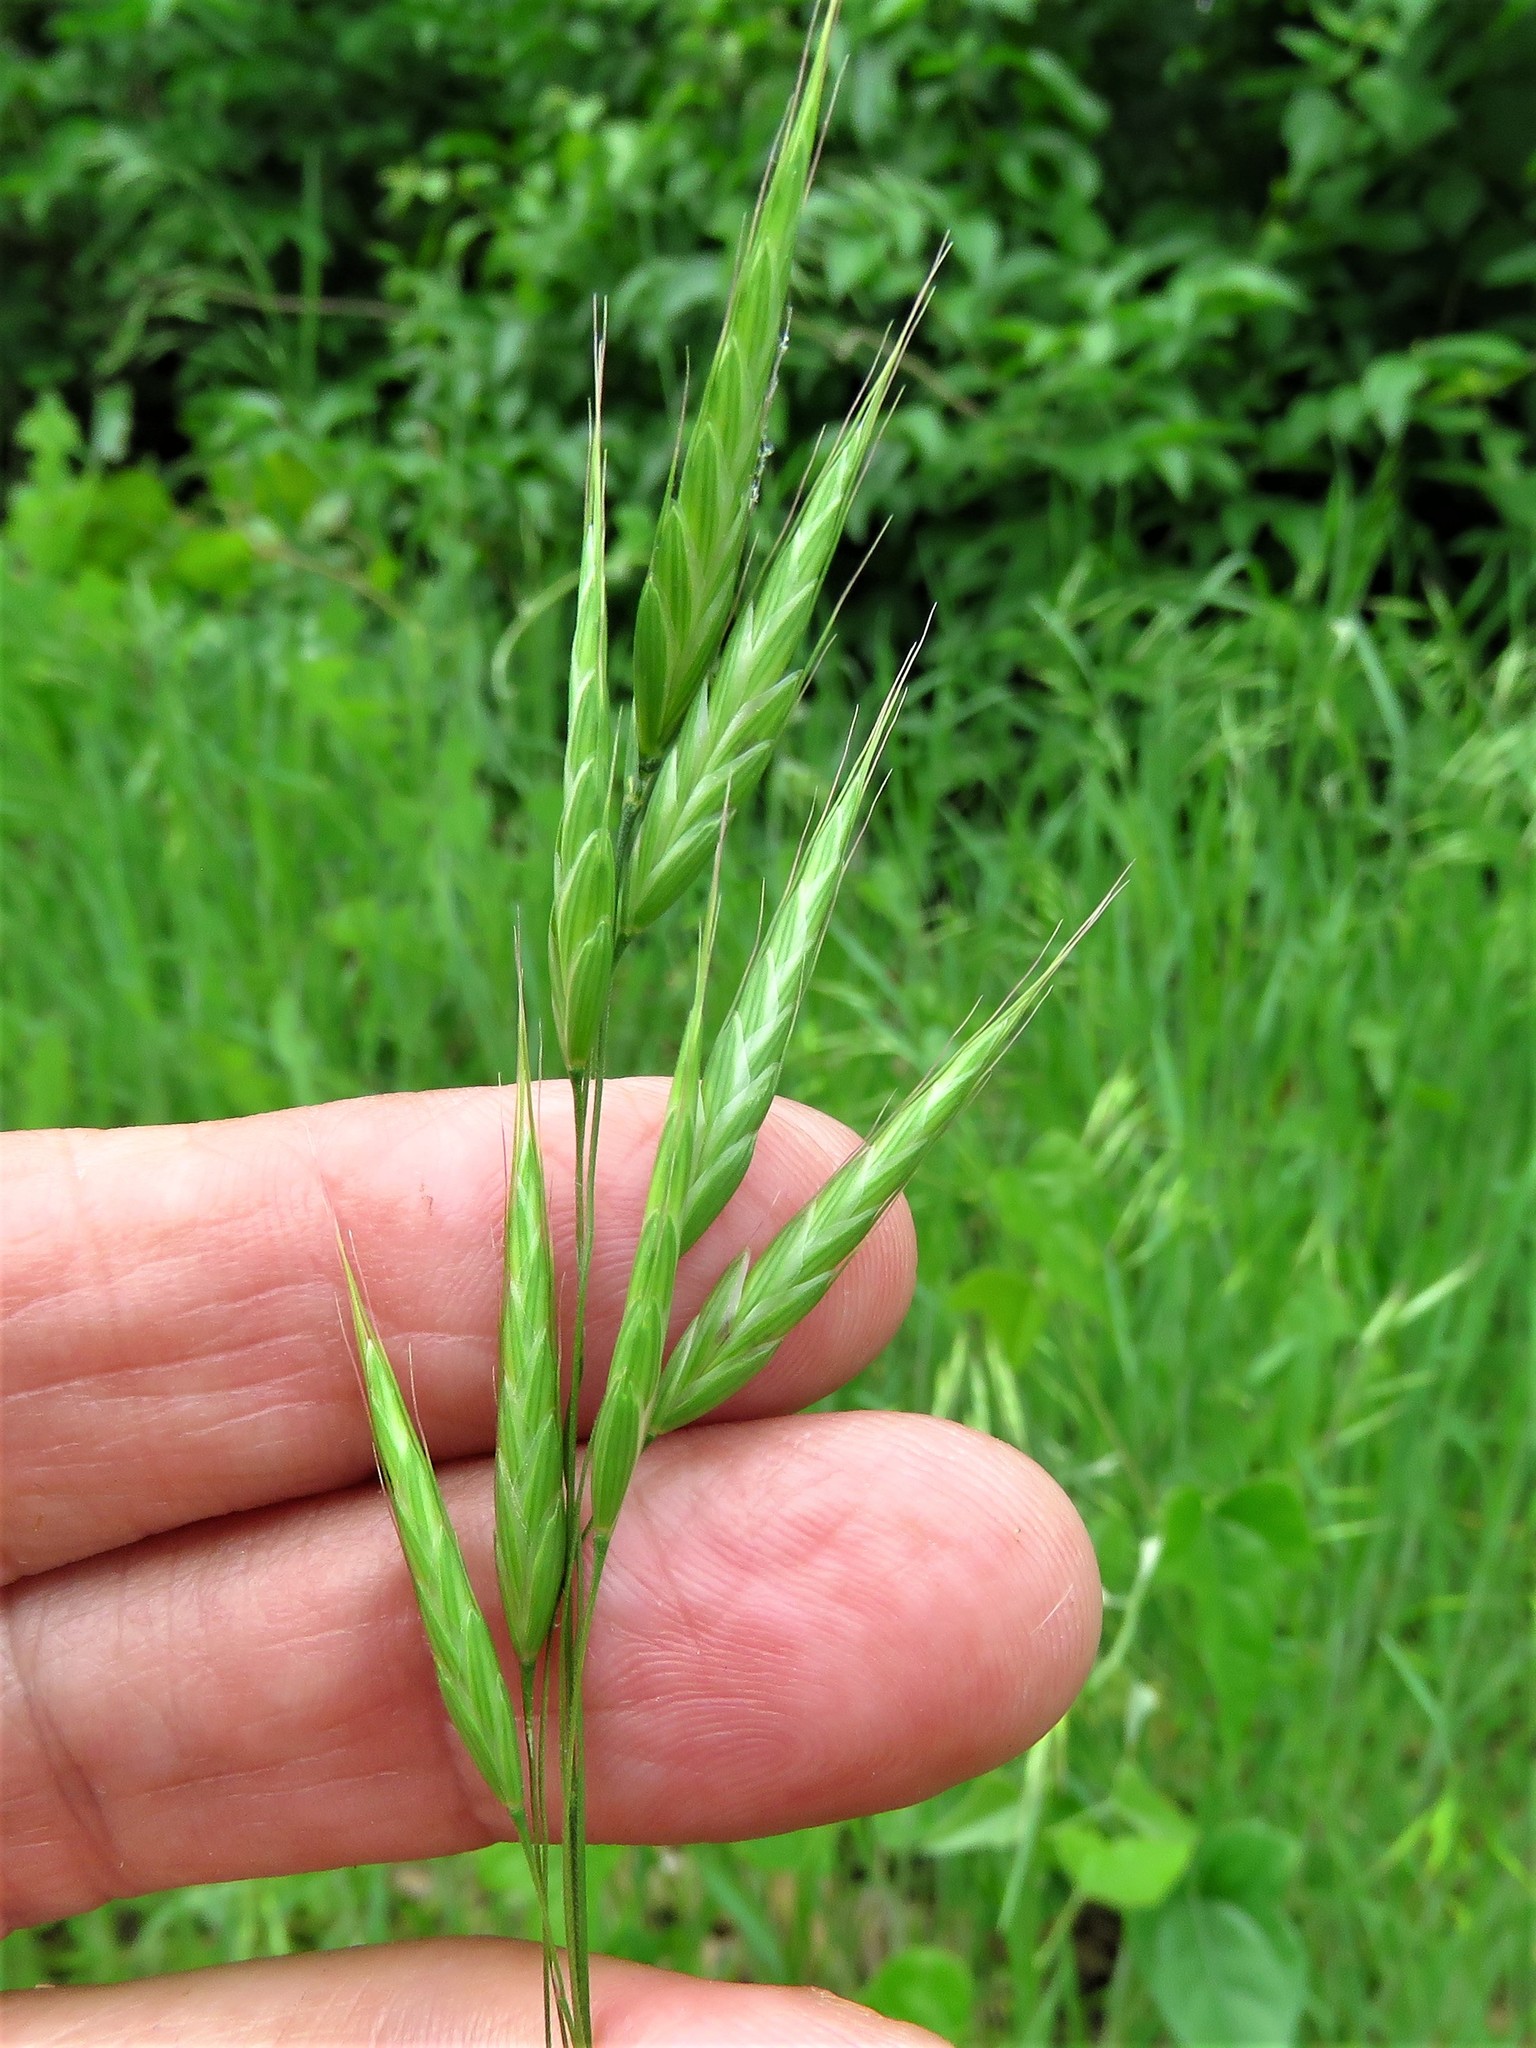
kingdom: Plantae
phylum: Tracheophyta
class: Liliopsida
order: Poales
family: Poaceae
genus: Bromus
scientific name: Bromus japonicus
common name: Japanese brome
